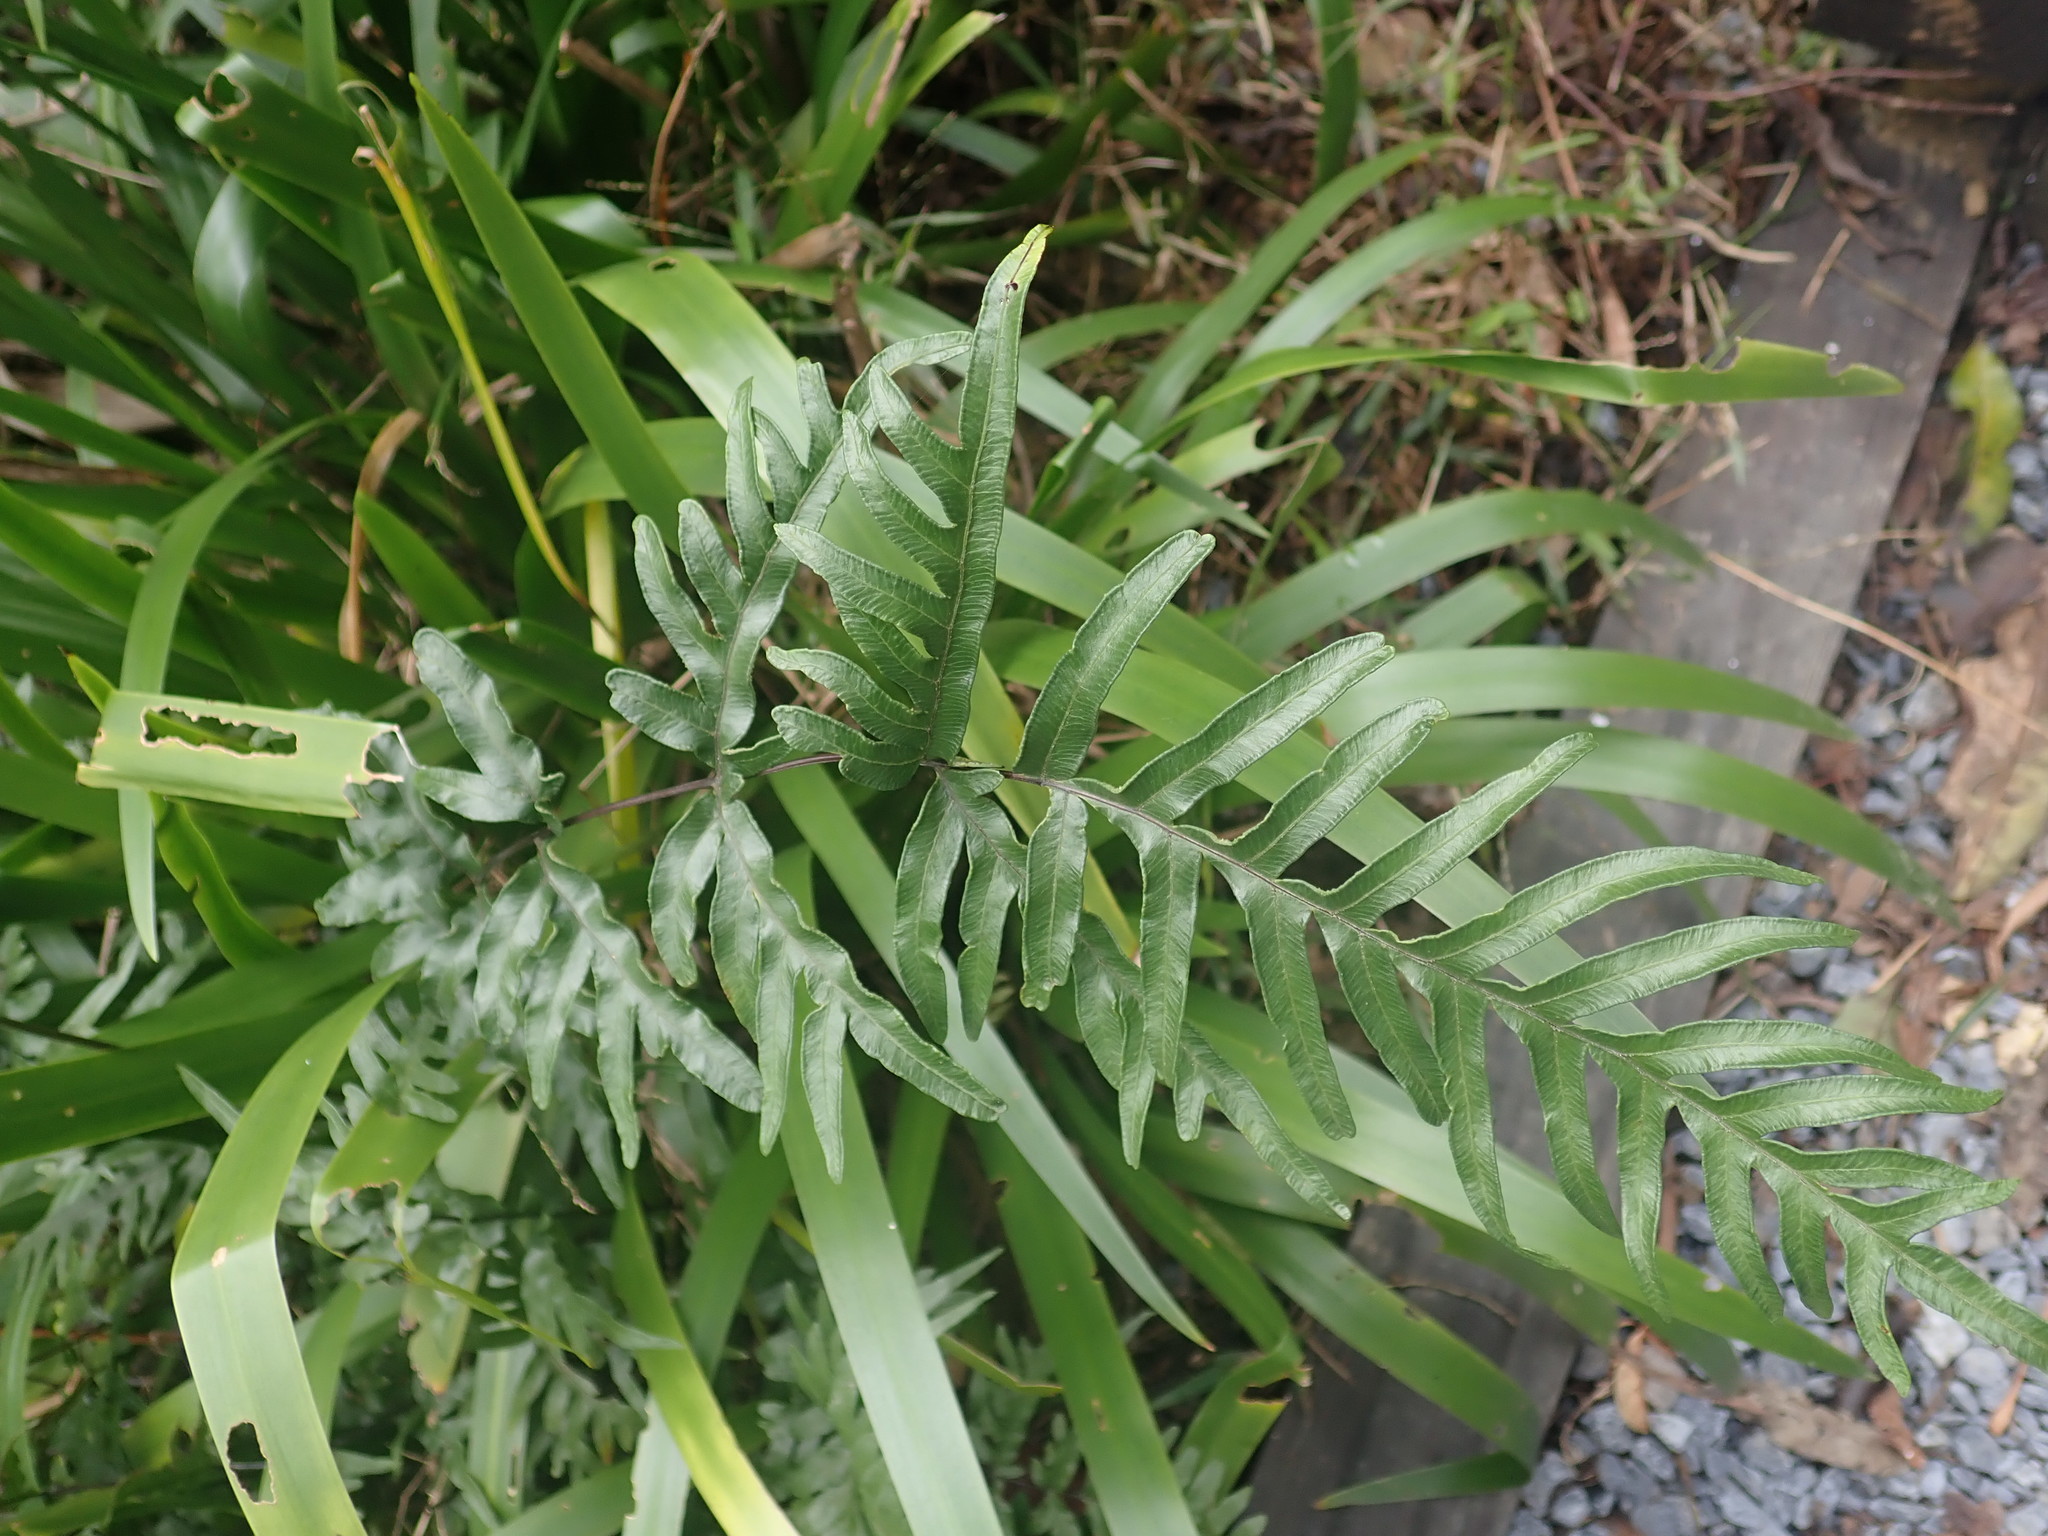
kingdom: Plantae
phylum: Tracheophyta
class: Polypodiopsida
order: Polypodiales
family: Pteridaceae
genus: Pteris
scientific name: Pteris semipinnata
